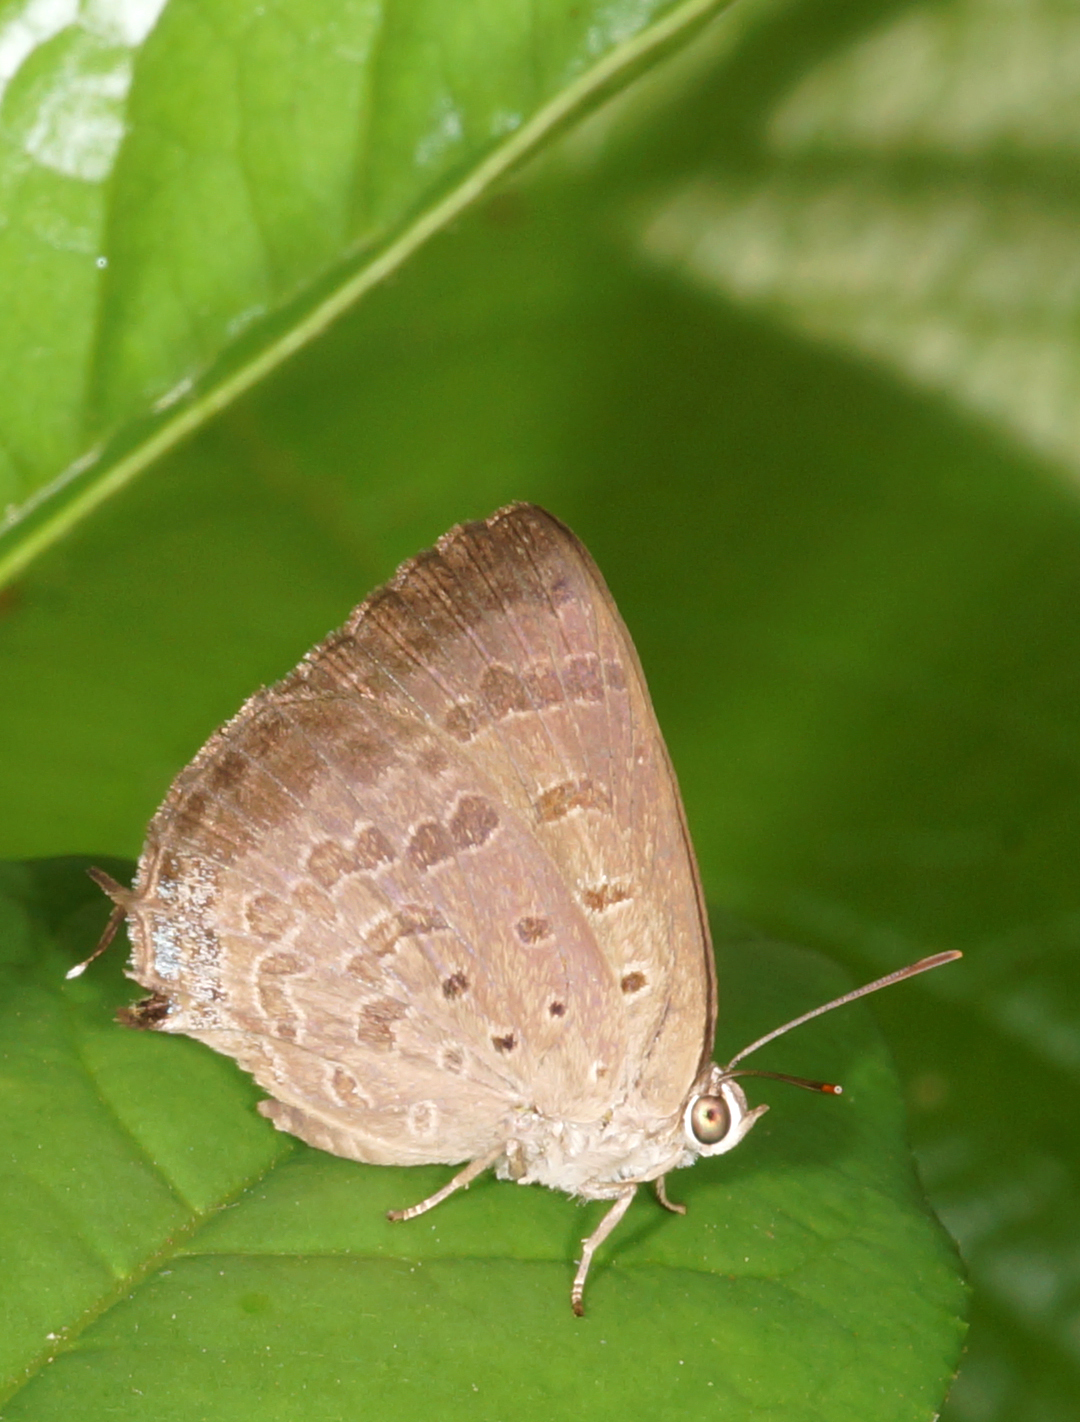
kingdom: Animalia
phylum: Arthropoda
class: Insecta
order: Lepidoptera
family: Lycaenidae
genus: Arhopala
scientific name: Arhopala atrax
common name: Indian oakblue
